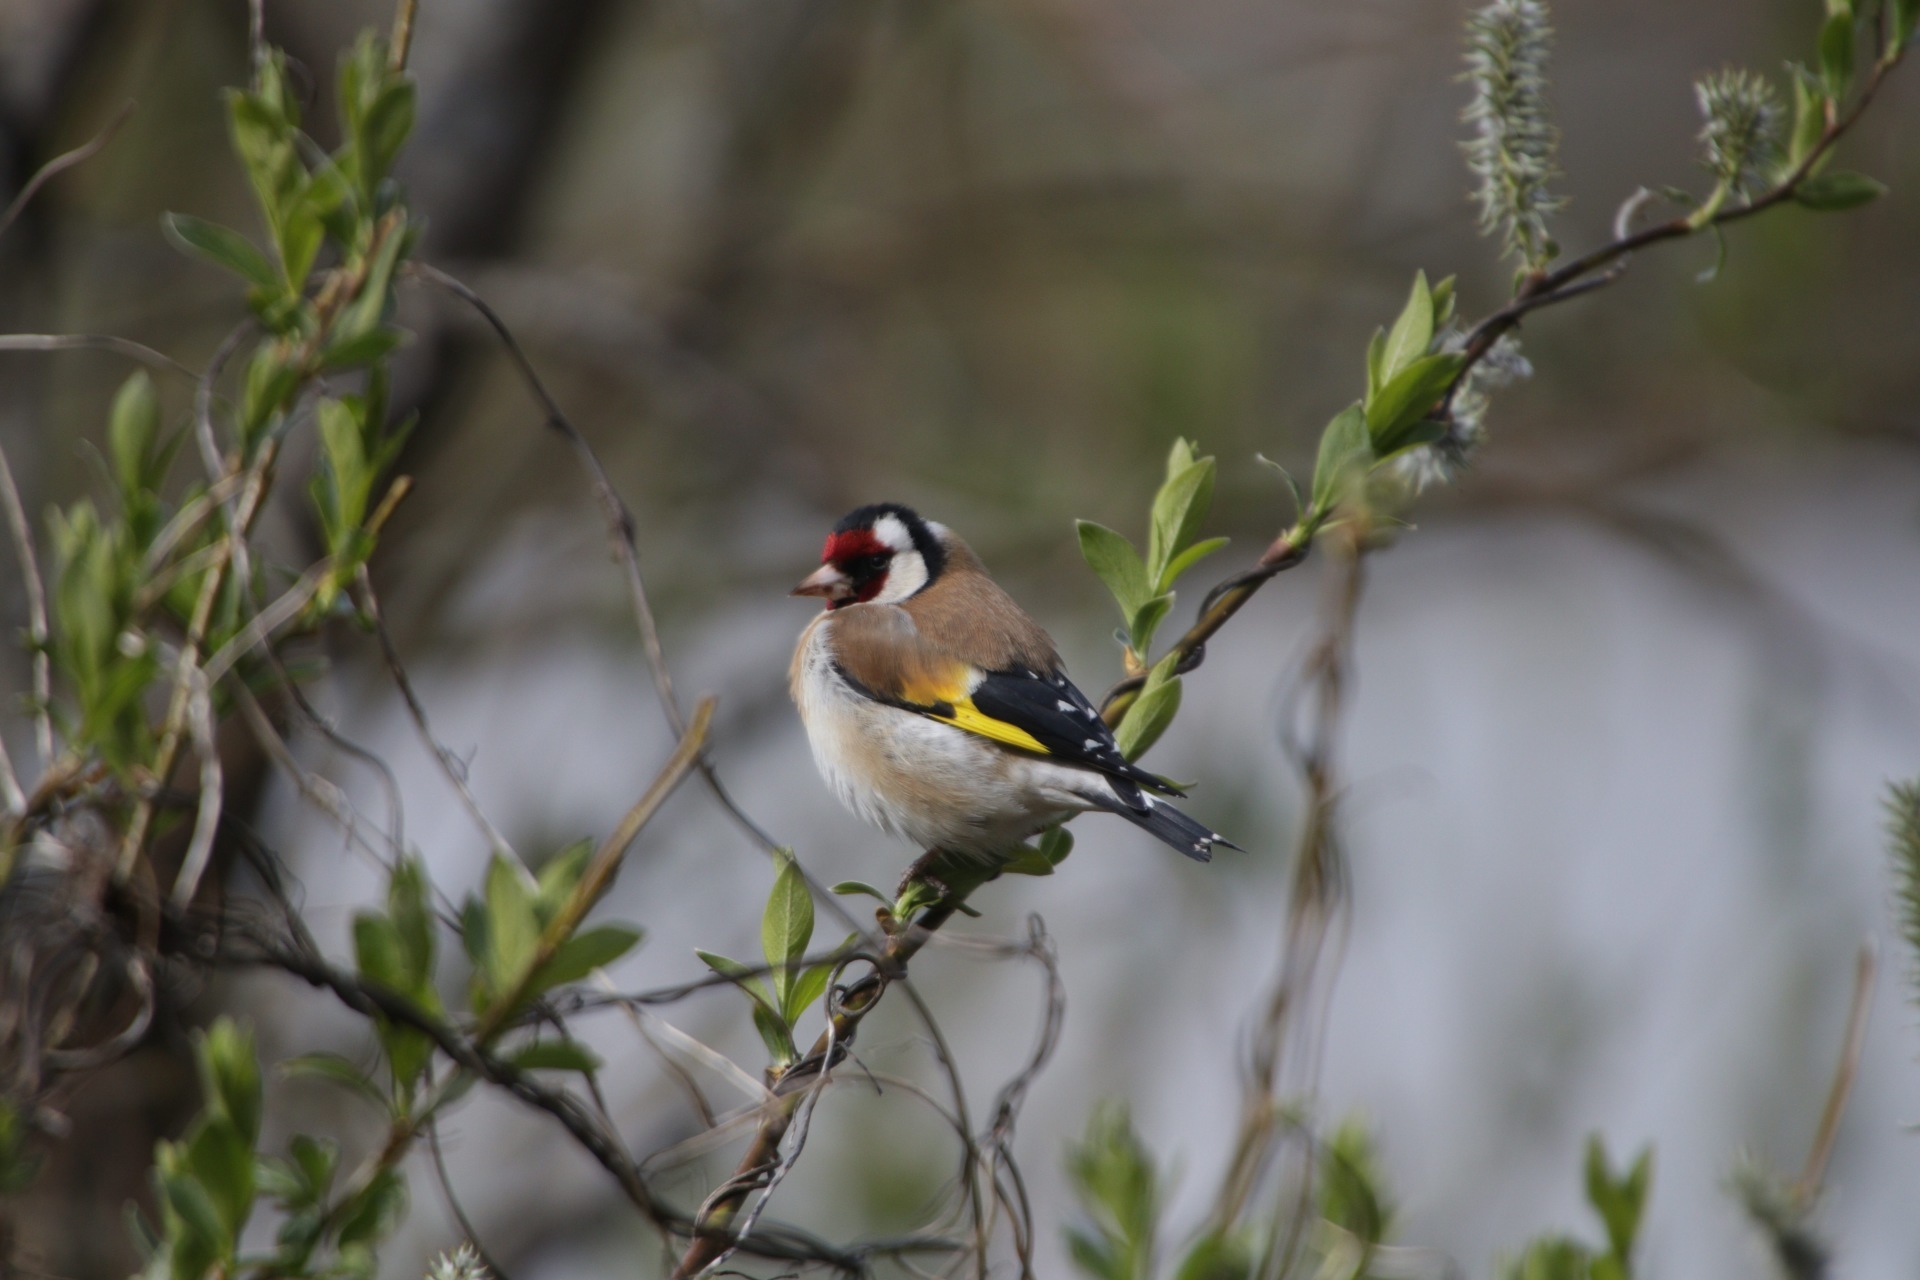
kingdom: Animalia
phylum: Chordata
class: Aves
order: Passeriformes
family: Fringillidae
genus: Carduelis
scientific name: Carduelis carduelis
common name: European goldfinch
